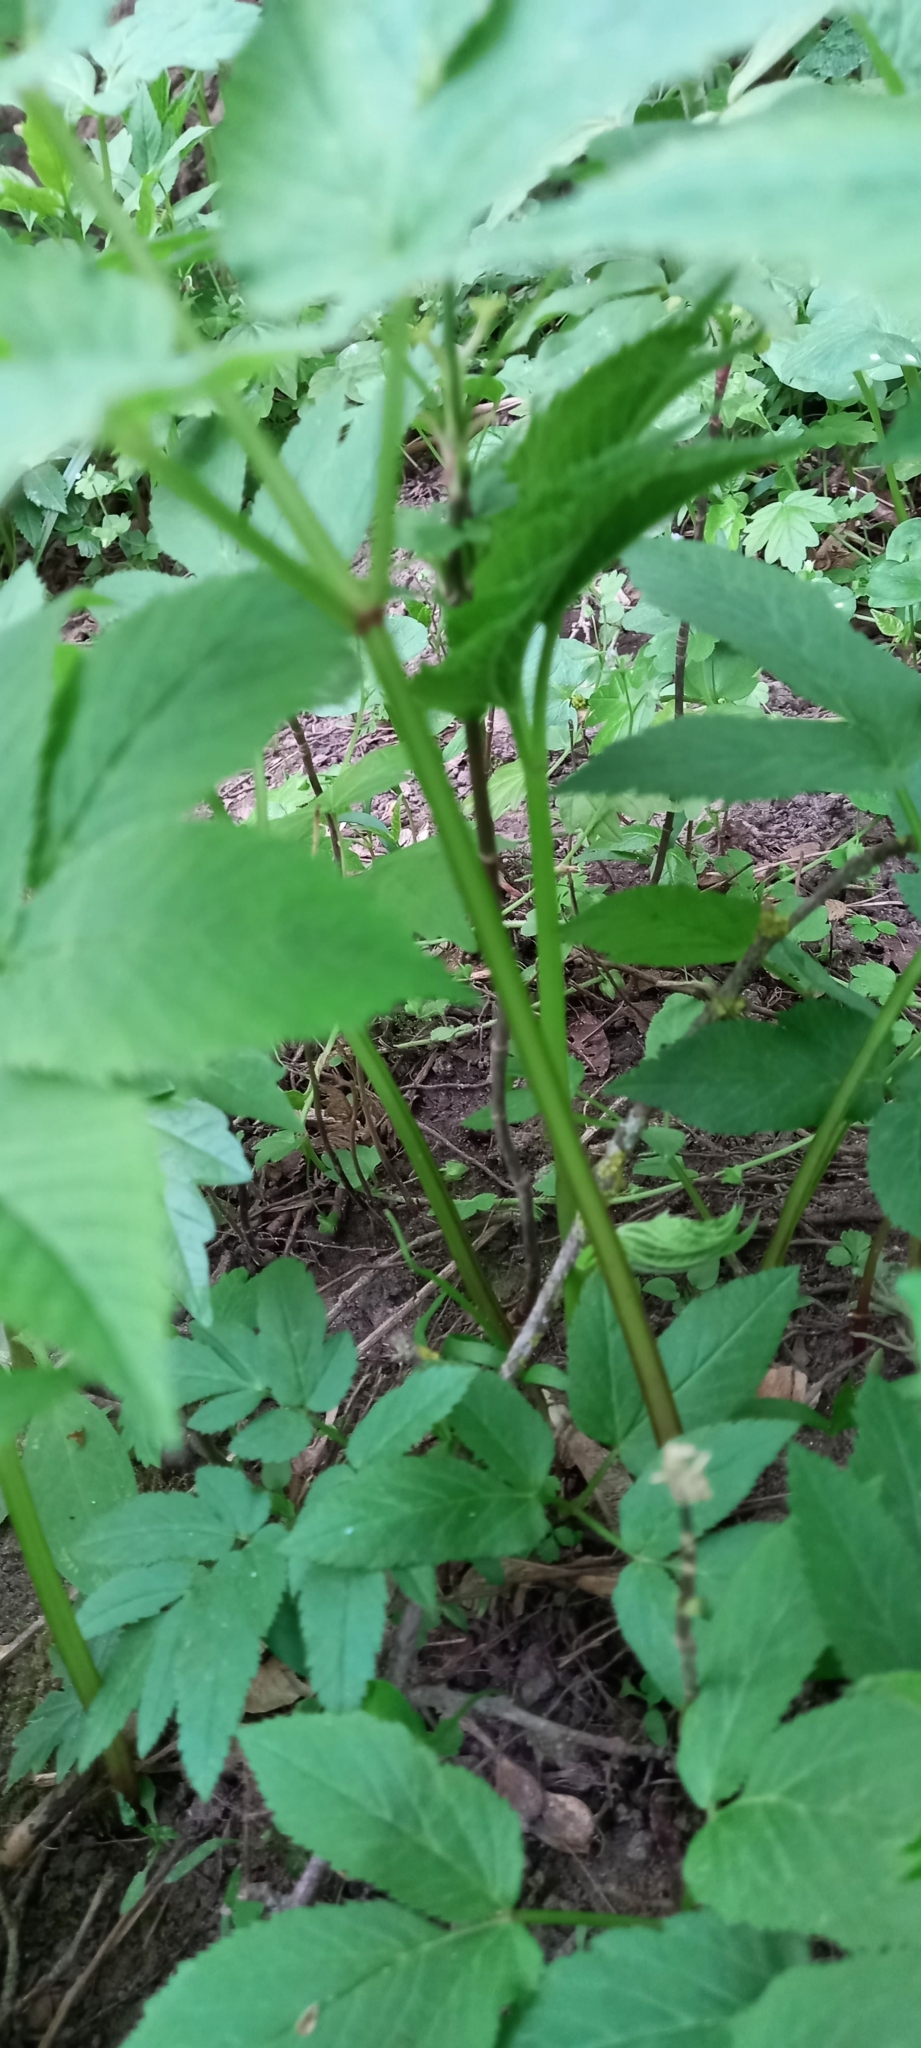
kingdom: Plantae
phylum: Tracheophyta
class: Magnoliopsida
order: Apiales
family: Apiaceae
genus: Aegopodium
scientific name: Aegopodium podagraria
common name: Ground-elder
